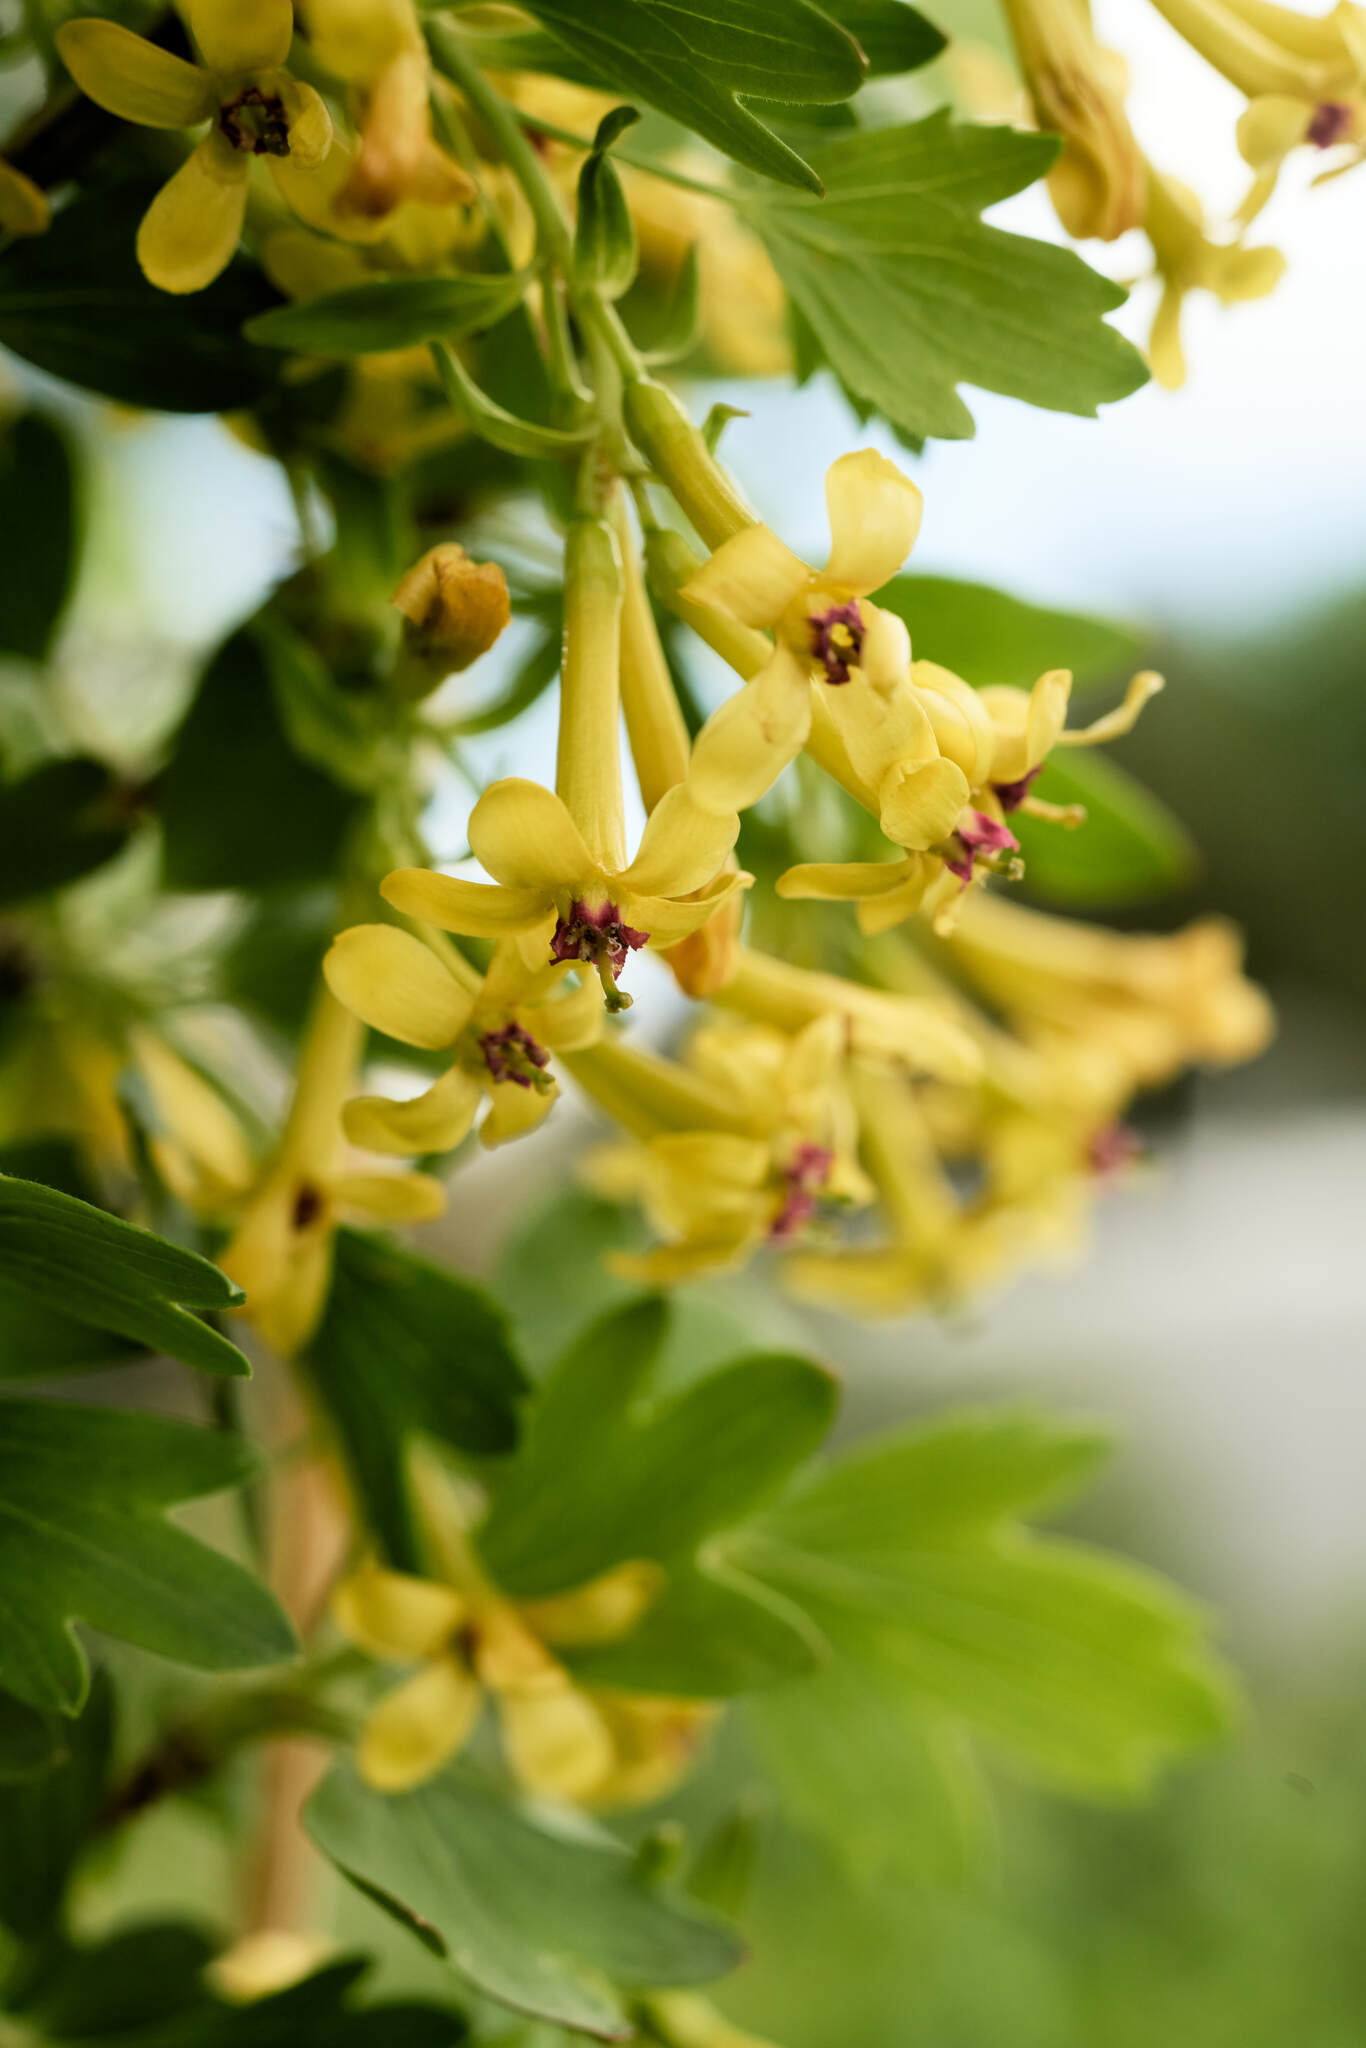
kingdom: Plantae
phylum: Tracheophyta
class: Magnoliopsida
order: Saxifragales
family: Grossulariaceae
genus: Ribes
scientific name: Ribes aureum
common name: Golden currant
